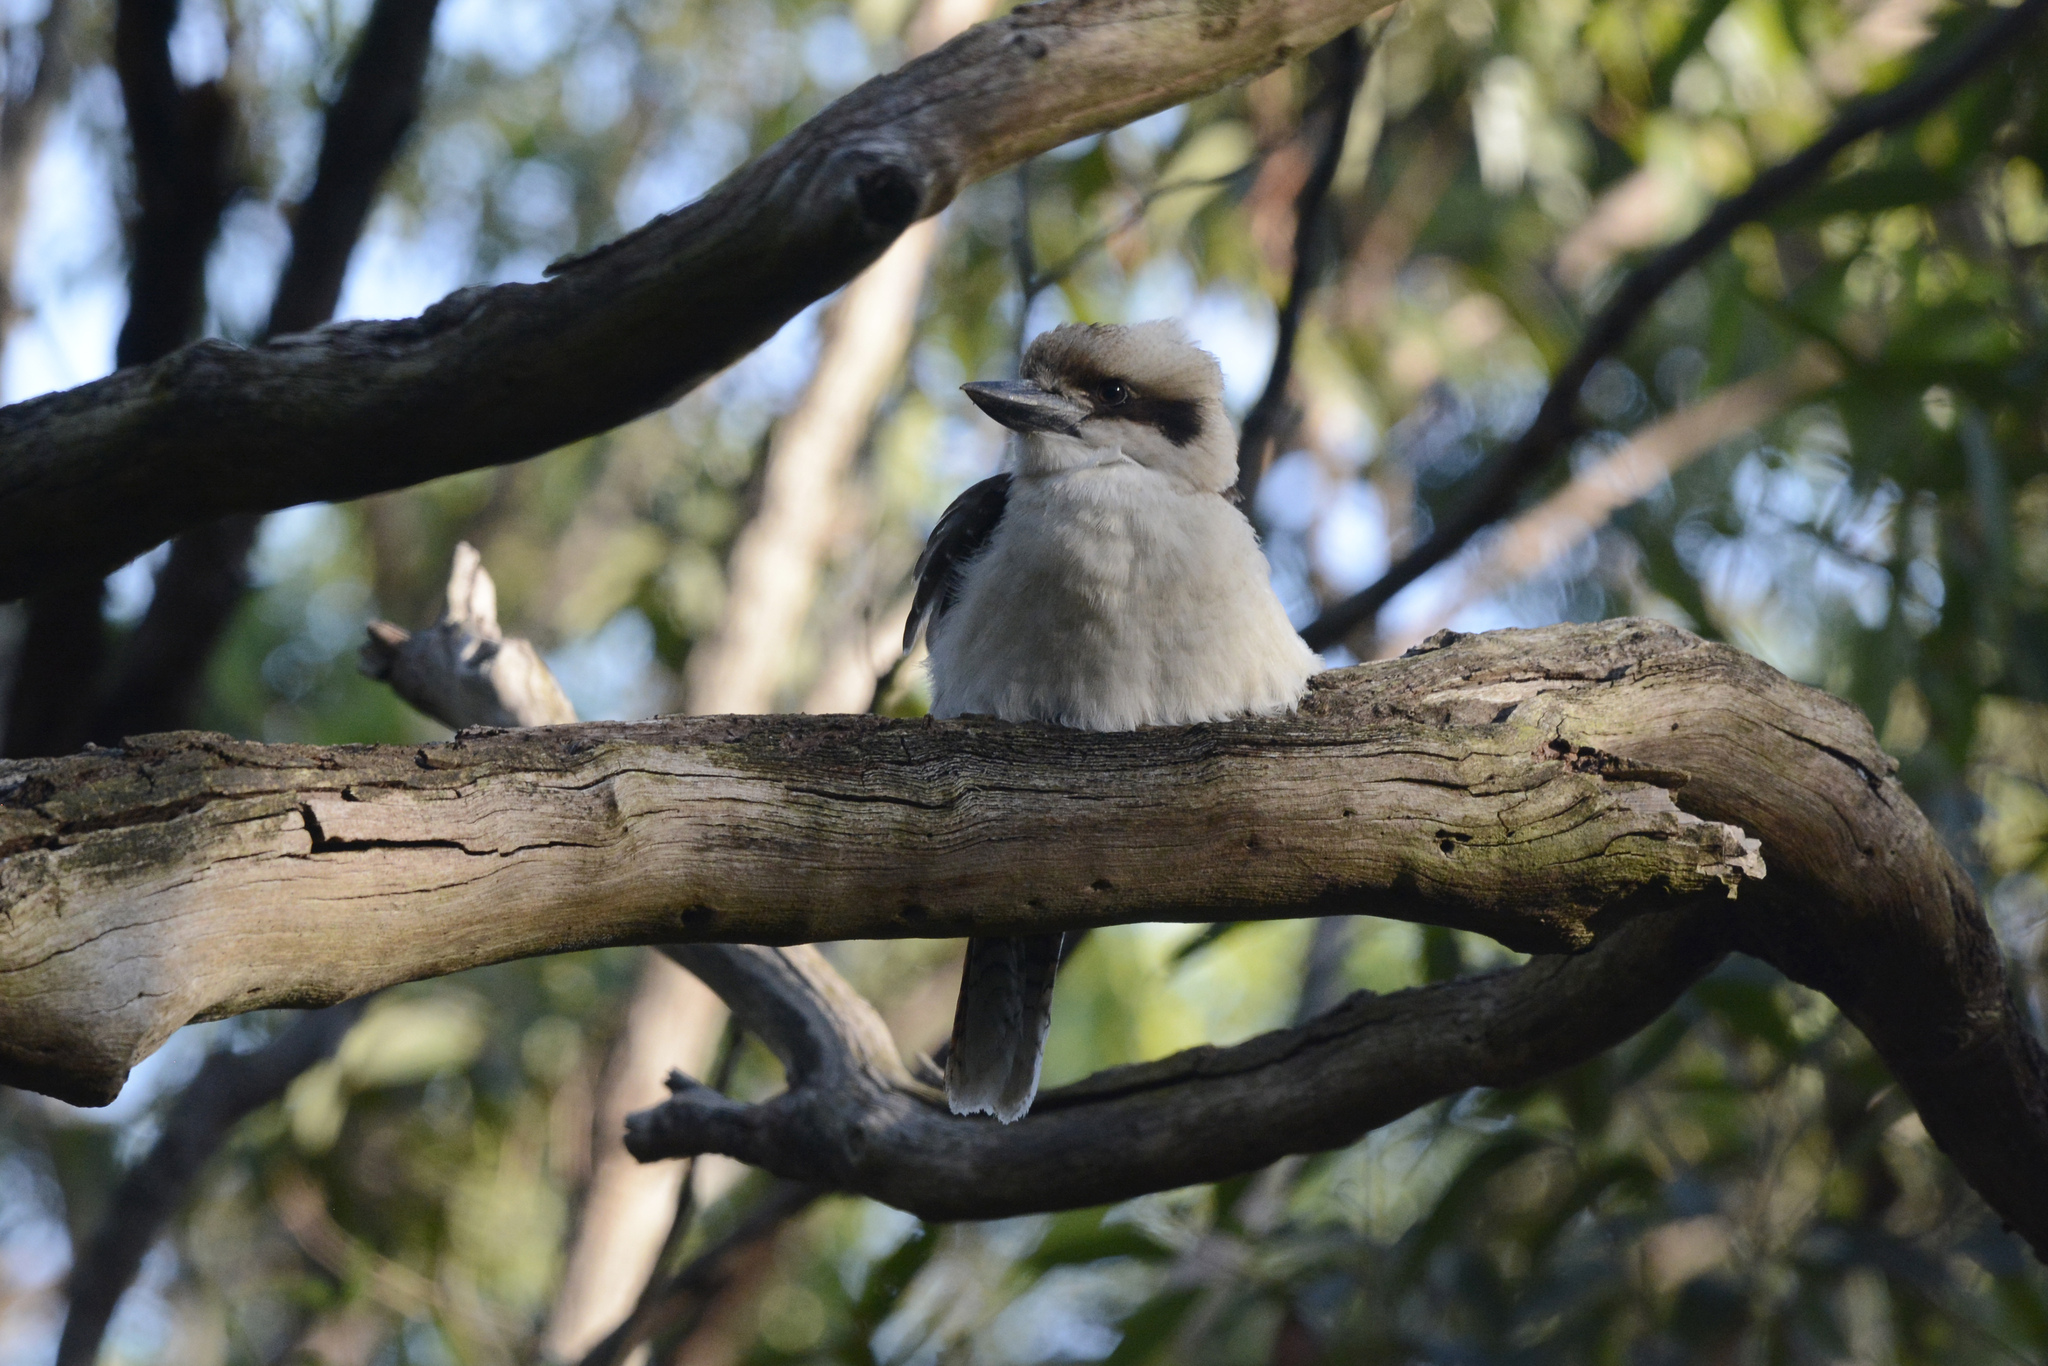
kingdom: Animalia
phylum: Chordata
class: Aves
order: Coraciiformes
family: Alcedinidae
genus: Dacelo
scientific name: Dacelo novaeguineae
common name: Laughing kookaburra
